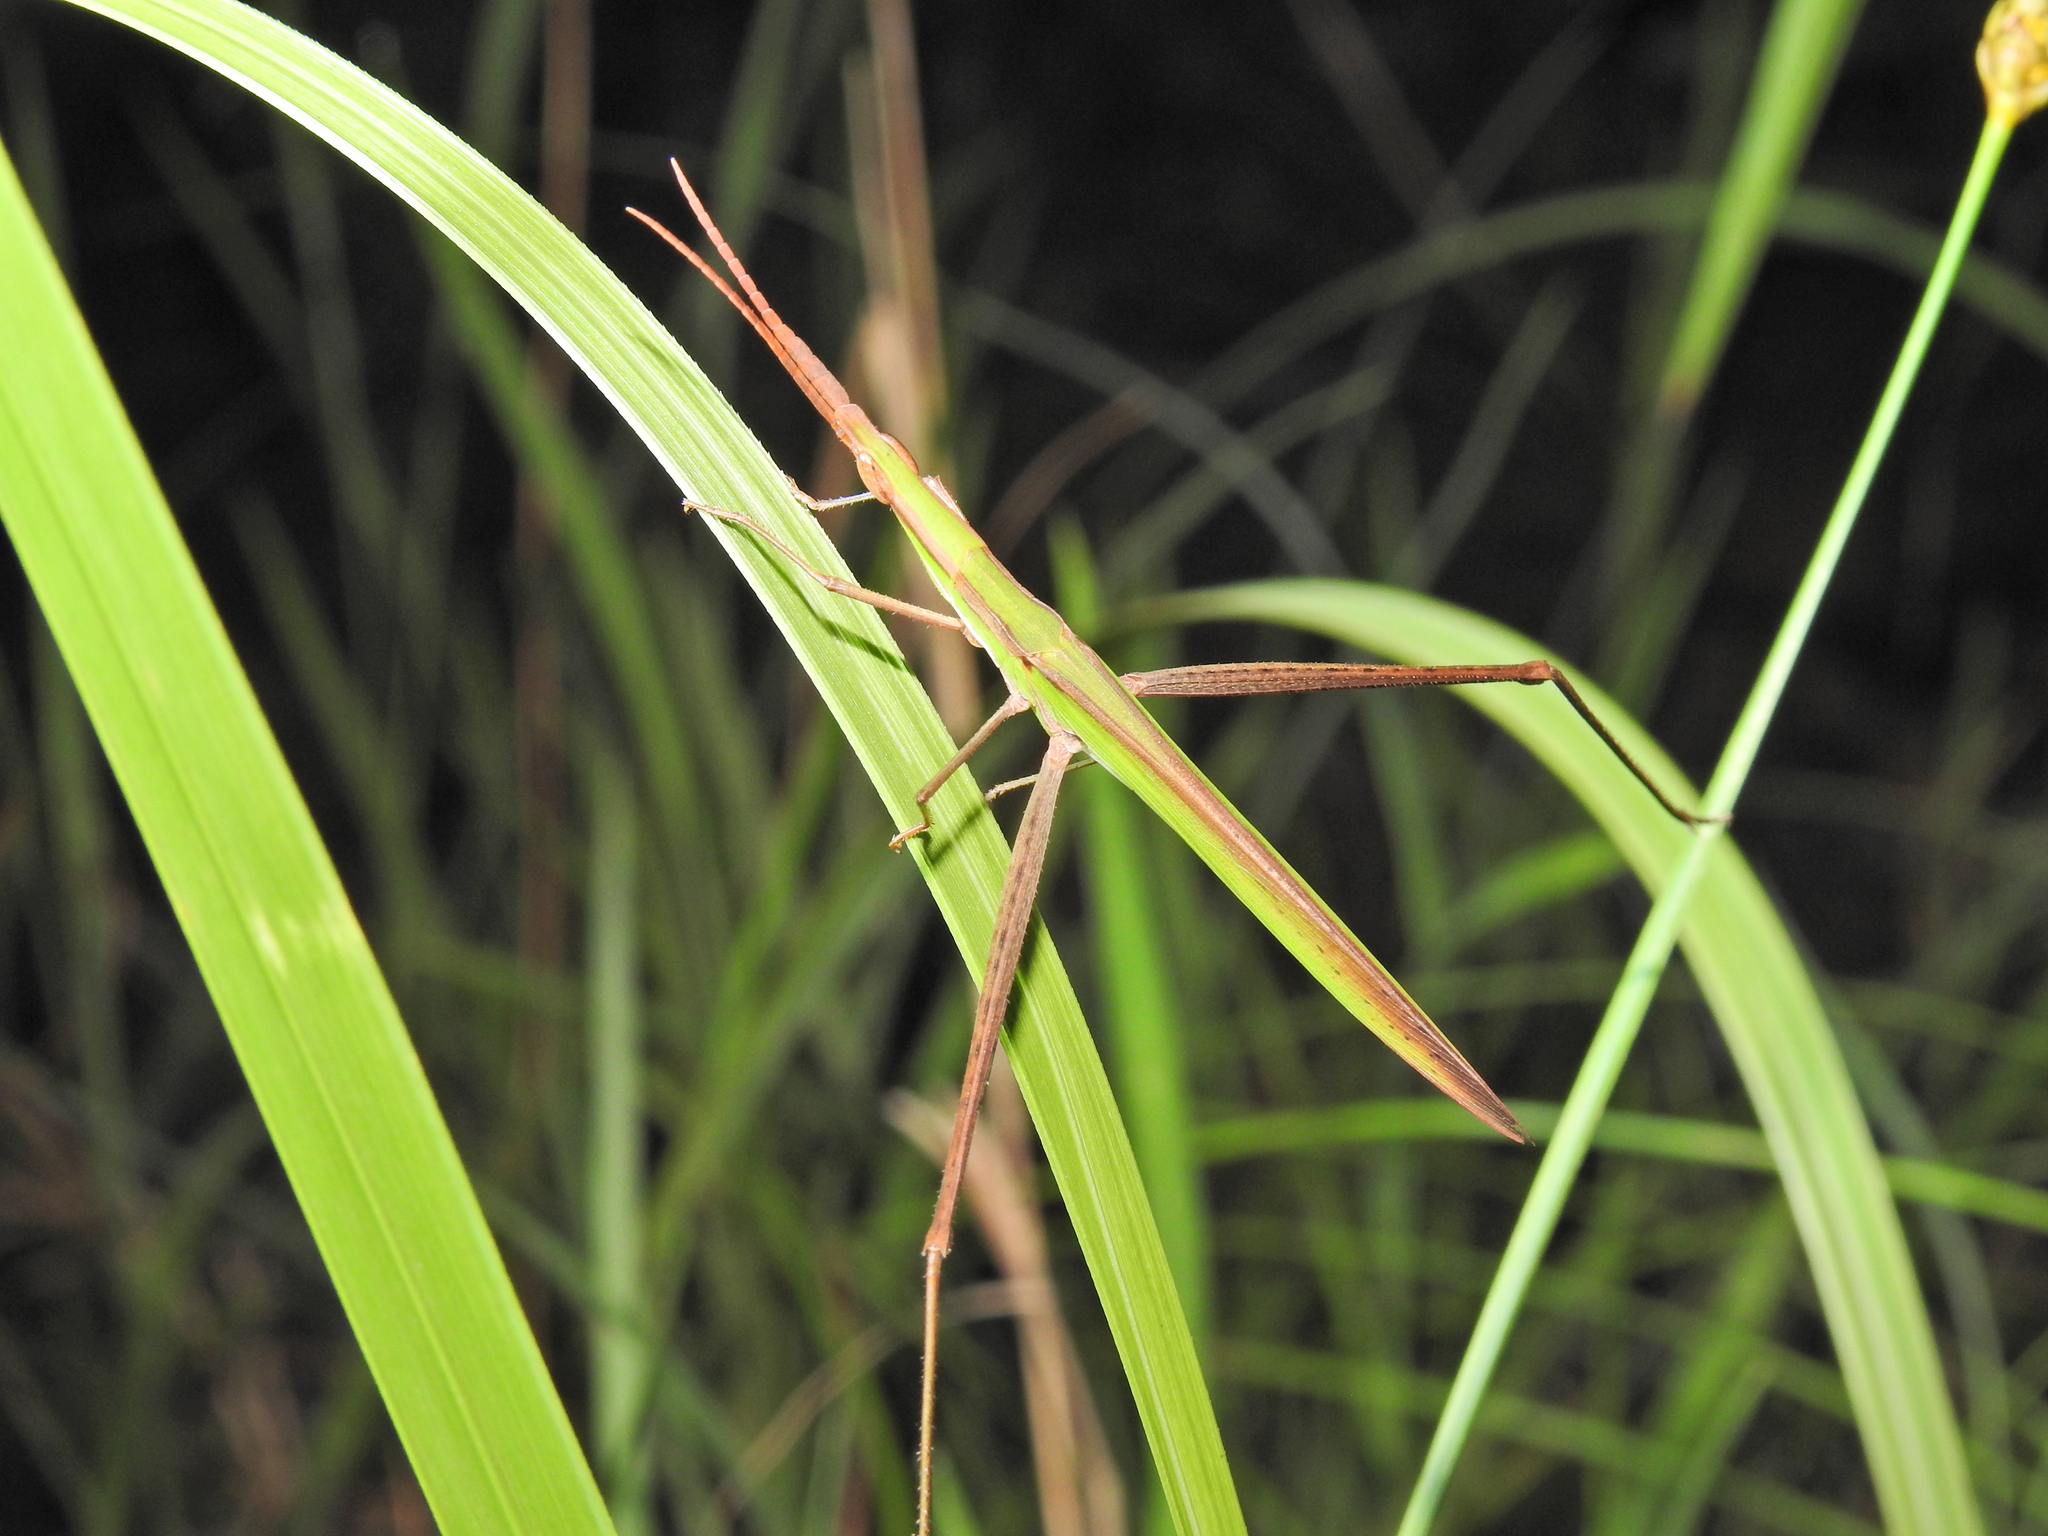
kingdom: Animalia
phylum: Arthropoda
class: Insecta
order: Orthoptera
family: Acrididae
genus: Acrida
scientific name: Acrida conica
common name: Giant green slantface
